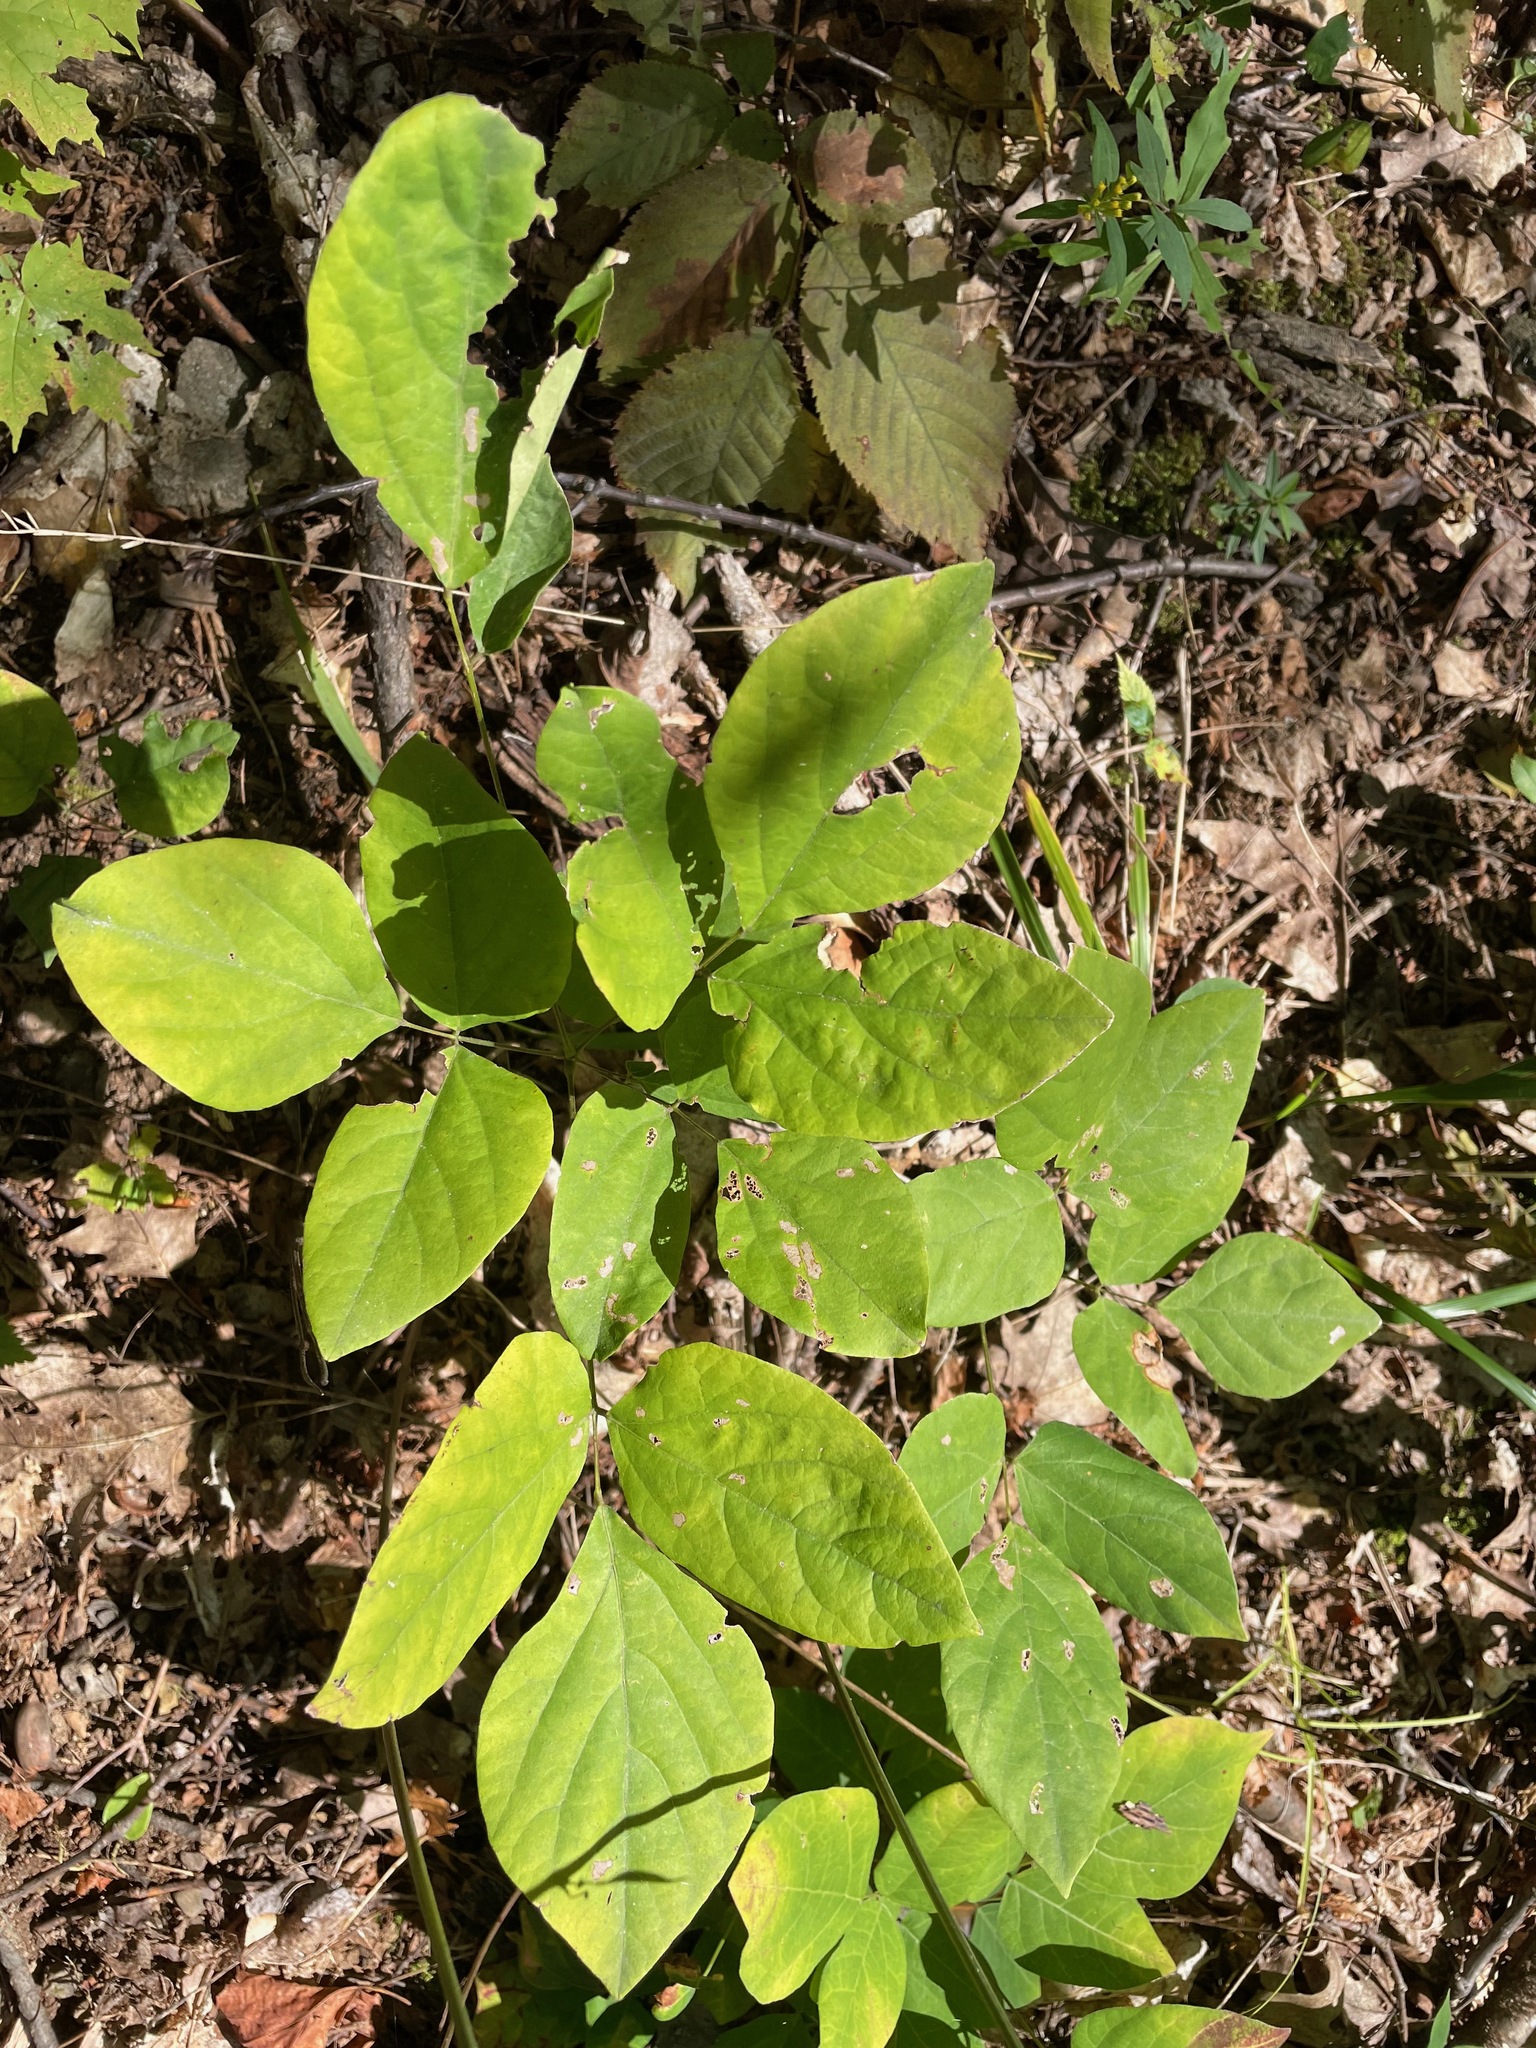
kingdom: Plantae
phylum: Tracheophyta
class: Magnoliopsida
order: Fabales
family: Fabaceae
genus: Hylodesmum
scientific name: Hylodesmum nudiflorum
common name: Bare-stemmed tick-trefoil
